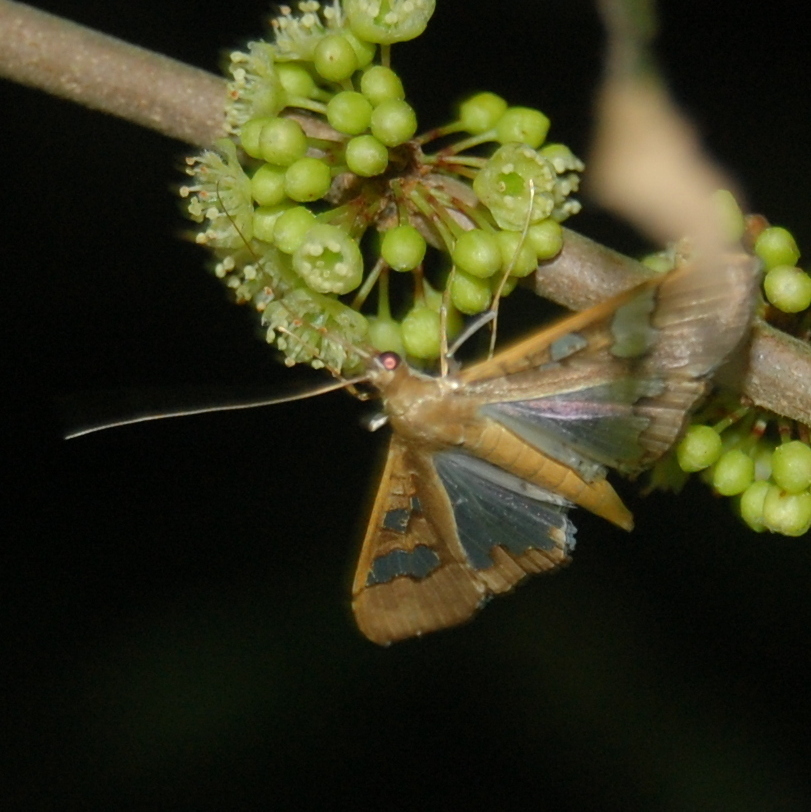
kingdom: Animalia
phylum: Arthropoda
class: Insecta
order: Lepidoptera
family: Crambidae
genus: Maruca
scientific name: Maruca vitrata
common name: Maruca pod borer
